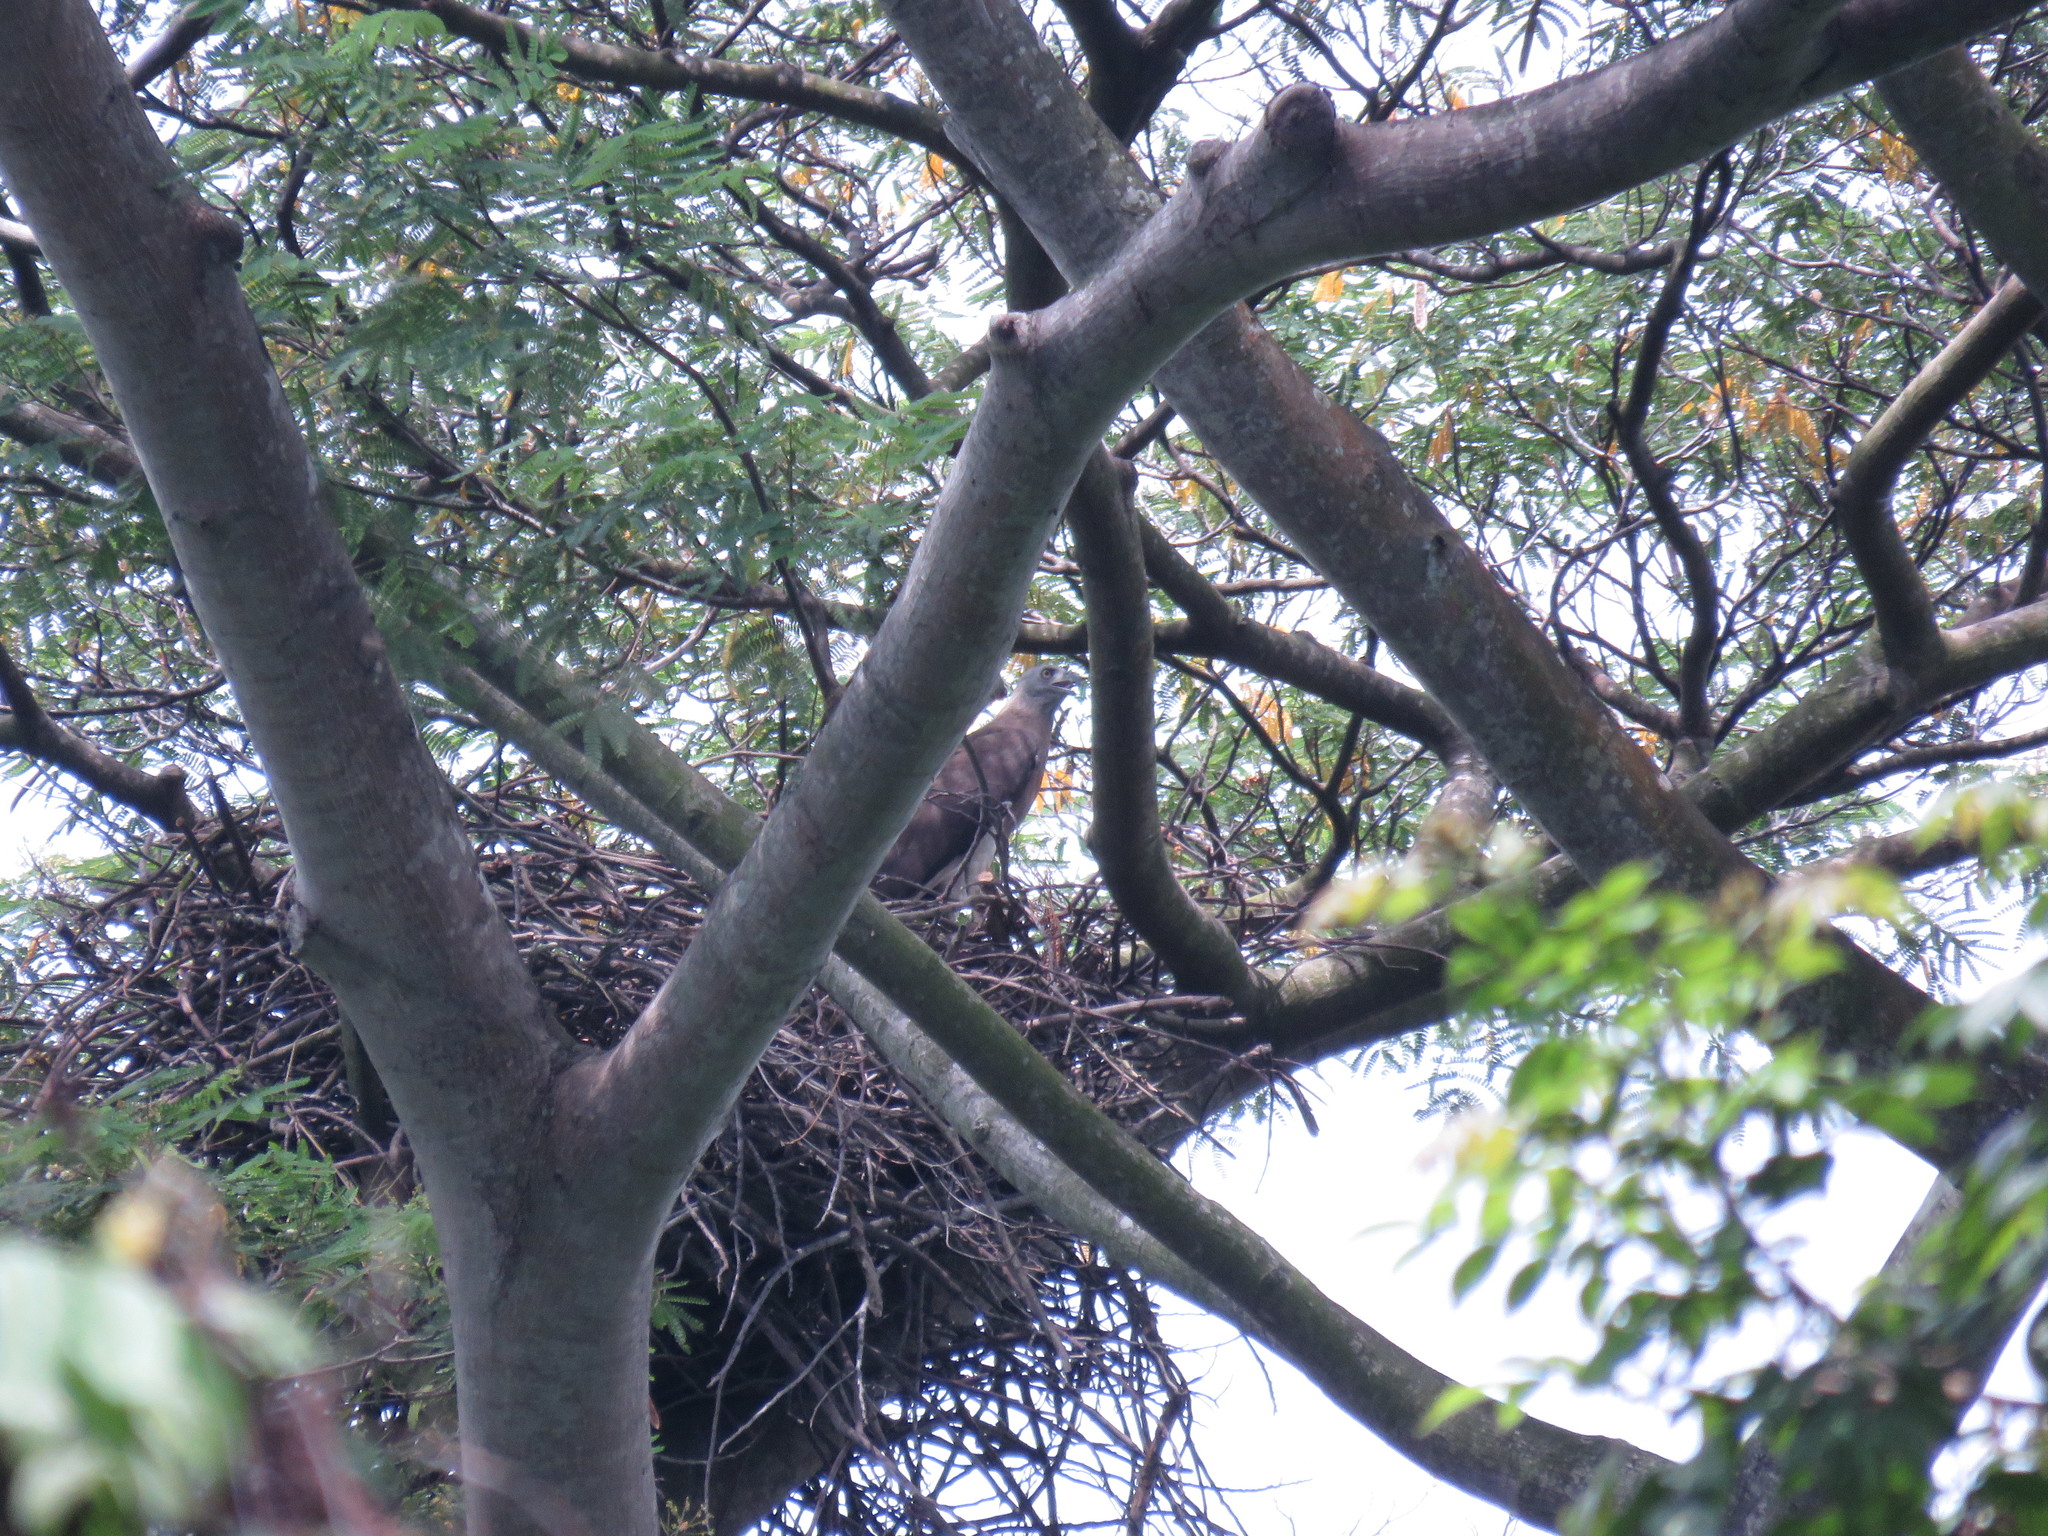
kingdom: Animalia
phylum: Chordata
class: Aves
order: Accipitriformes
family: Accipitridae
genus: Icthyophaga
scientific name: Icthyophaga ichthyaetus
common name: Grey-headed fish eagle
